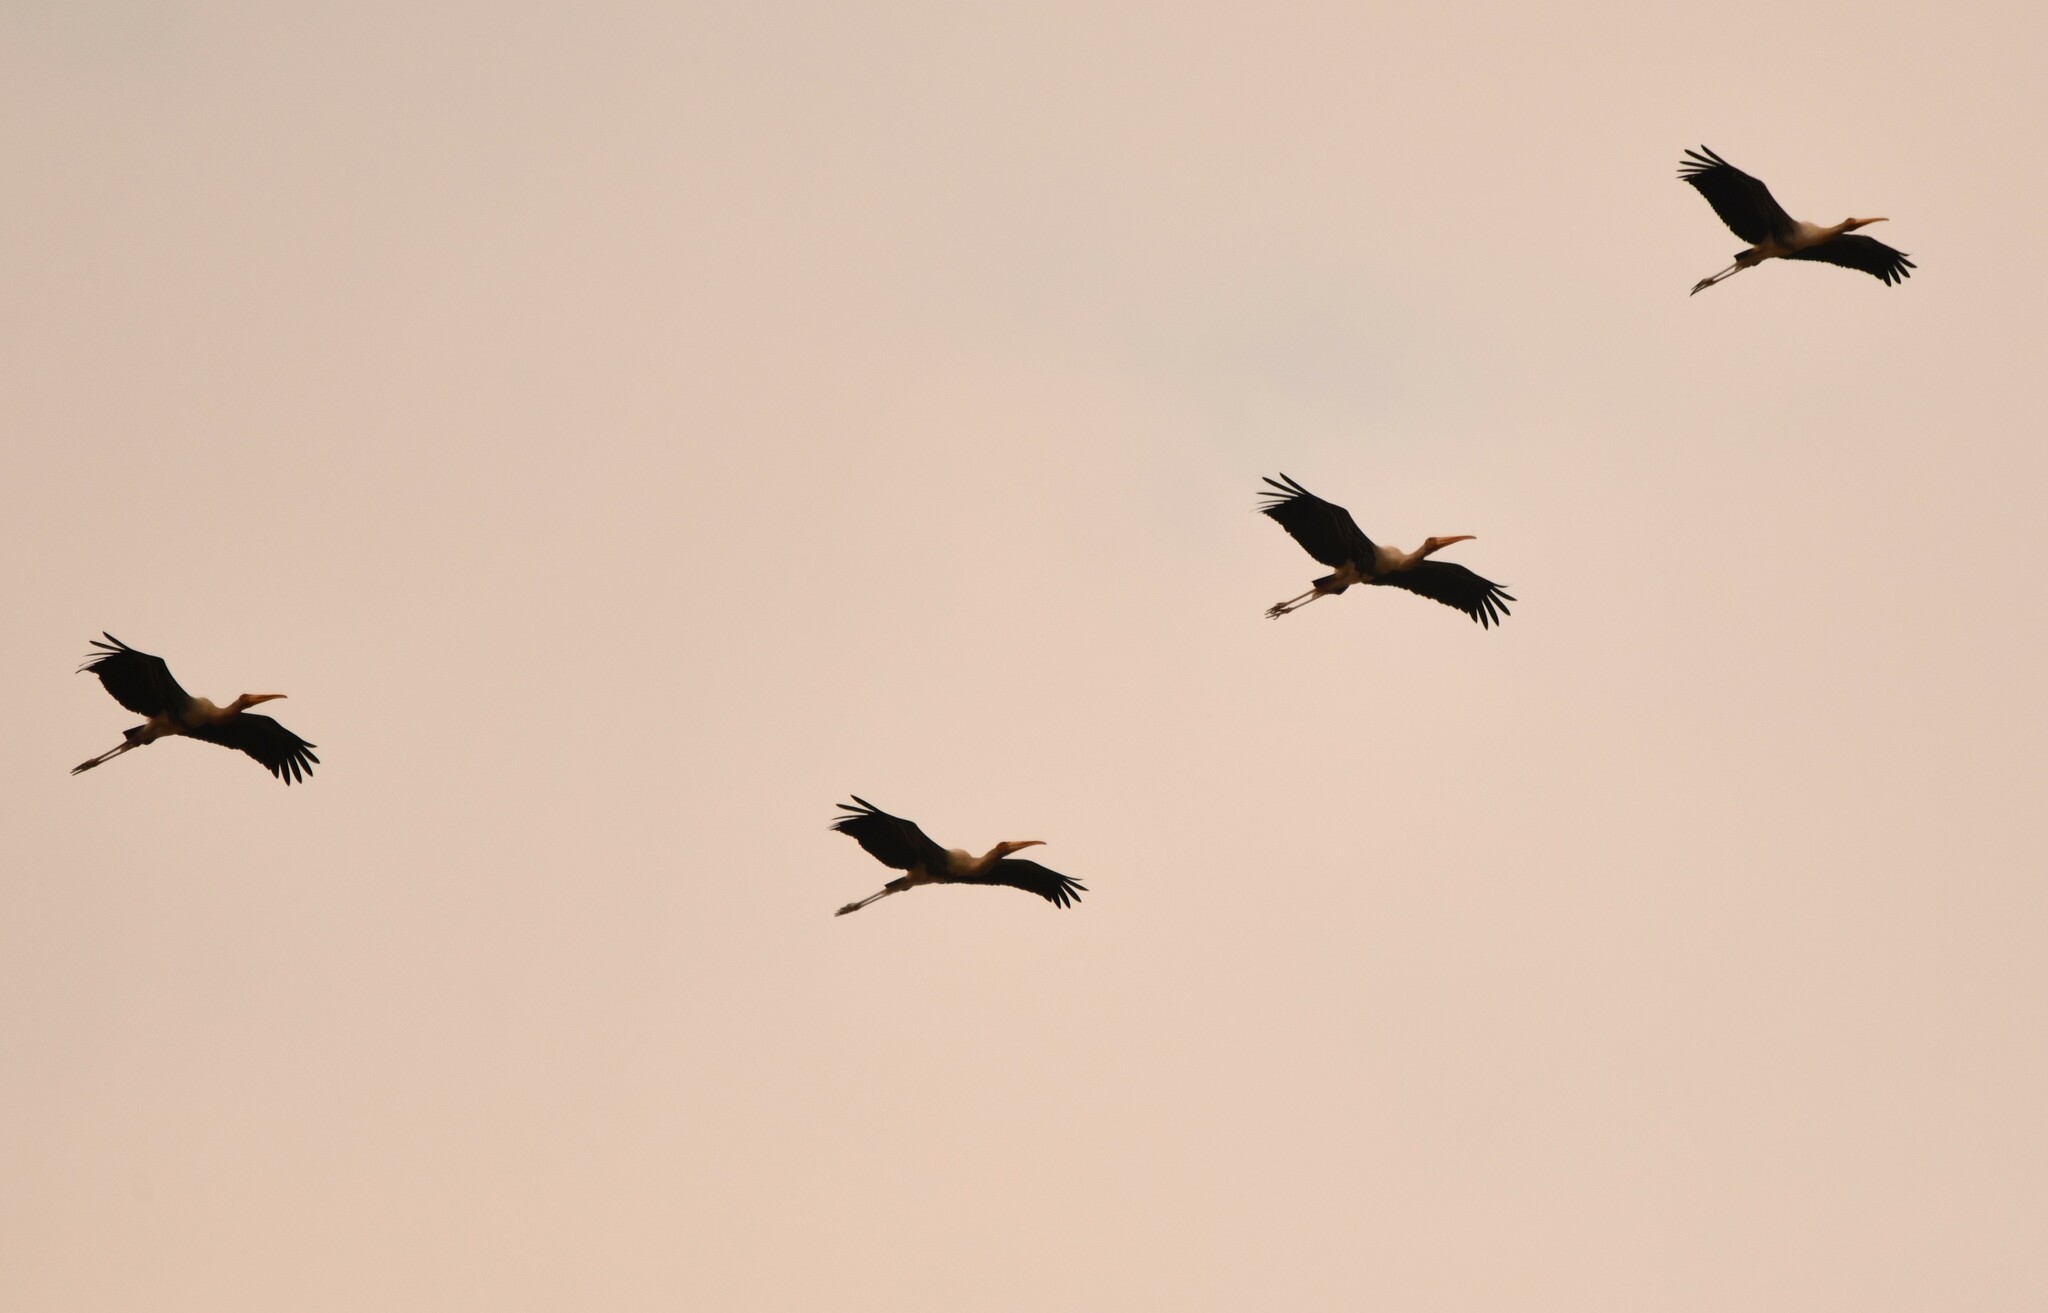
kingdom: Animalia
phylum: Chordata
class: Aves
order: Ciconiiformes
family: Ciconiidae
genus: Mycteria
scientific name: Mycteria leucocephala
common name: Painted stork
